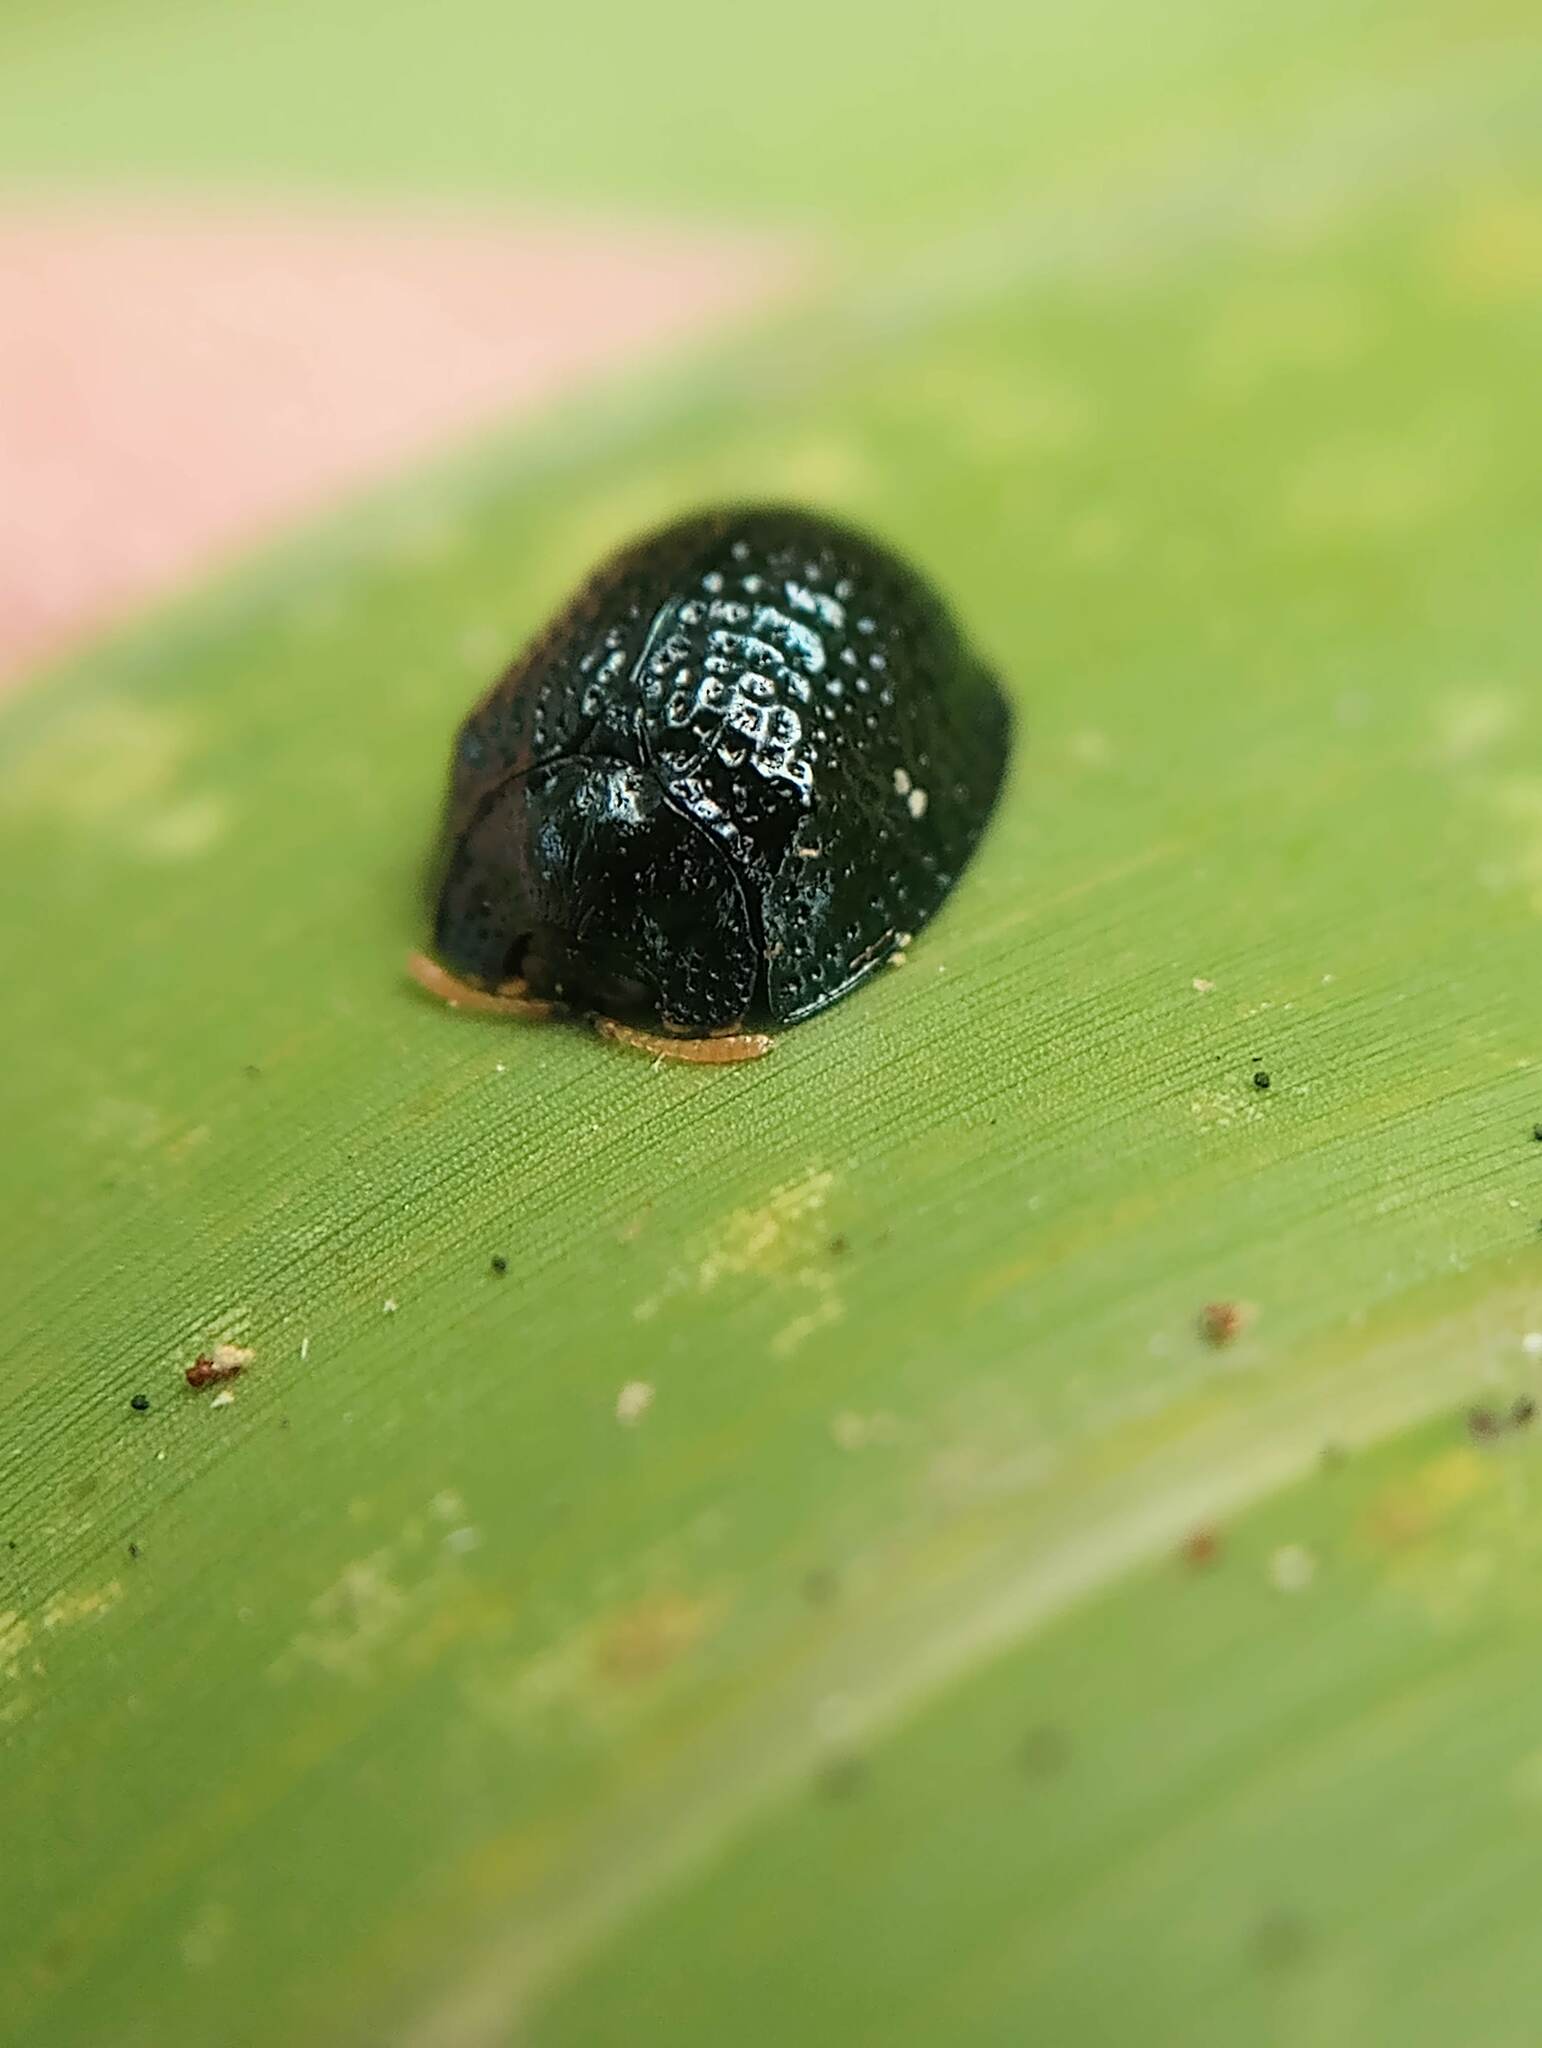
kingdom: Animalia
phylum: Arthropoda
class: Insecta
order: Coleoptera
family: Chrysomelidae
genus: Hemisphaerota
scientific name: Hemisphaerota cyanea
